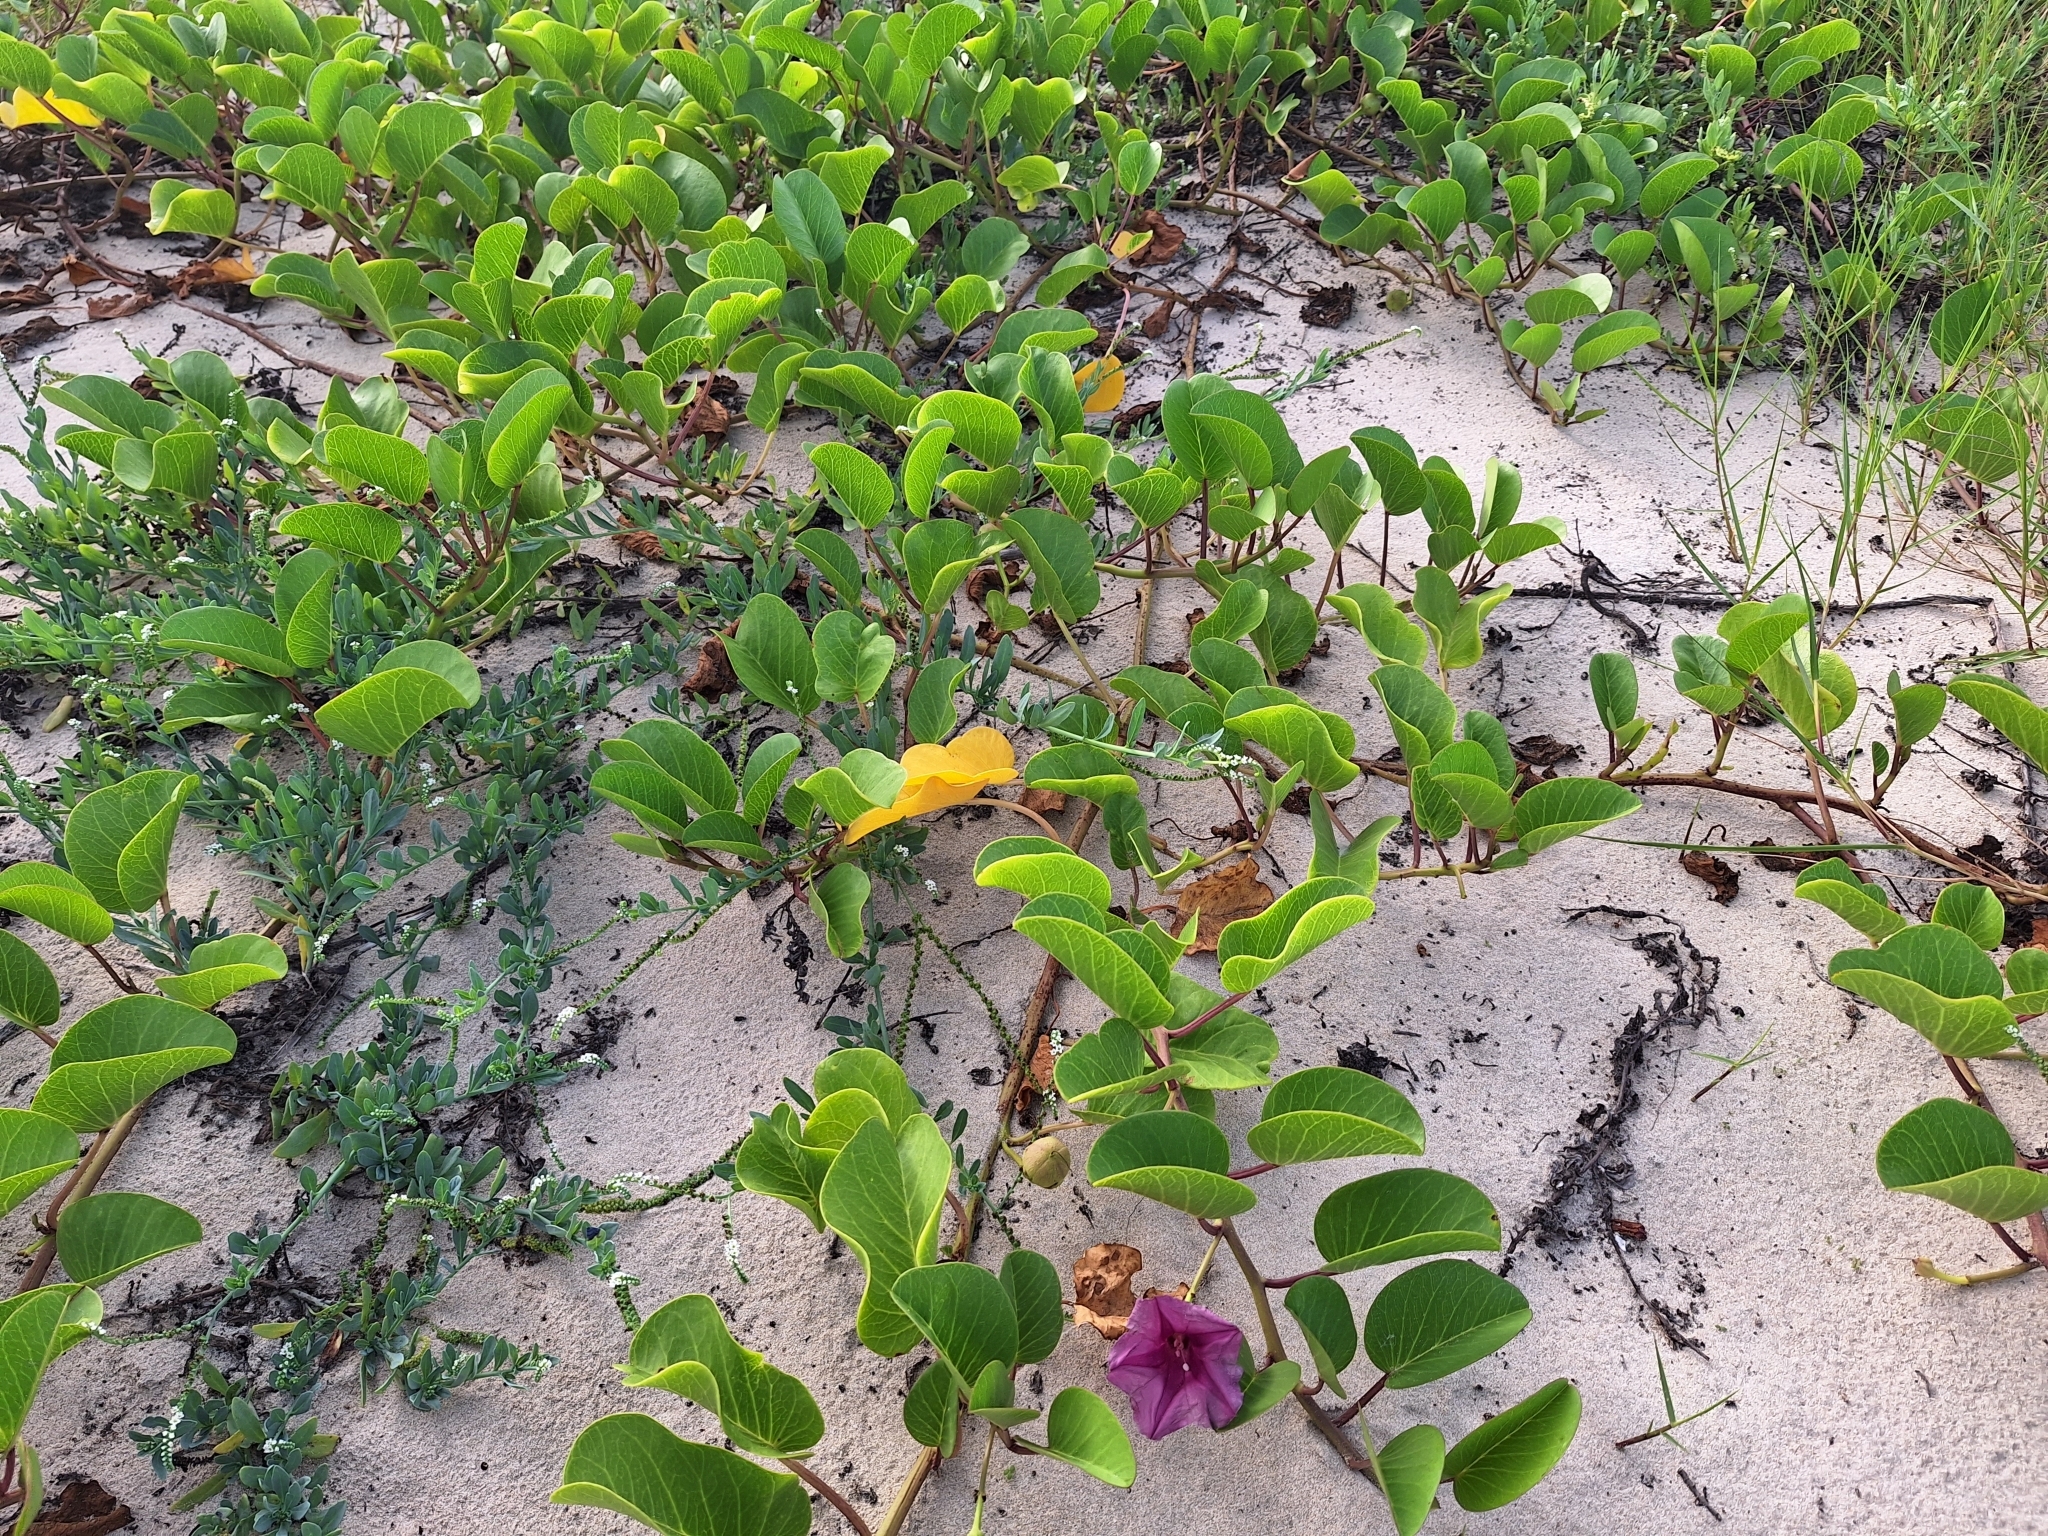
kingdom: Plantae
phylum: Tracheophyta
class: Magnoliopsida
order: Solanales
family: Convolvulaceae
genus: Ipomoea
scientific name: Ipomoea pes-caprae
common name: Beach morning glory
